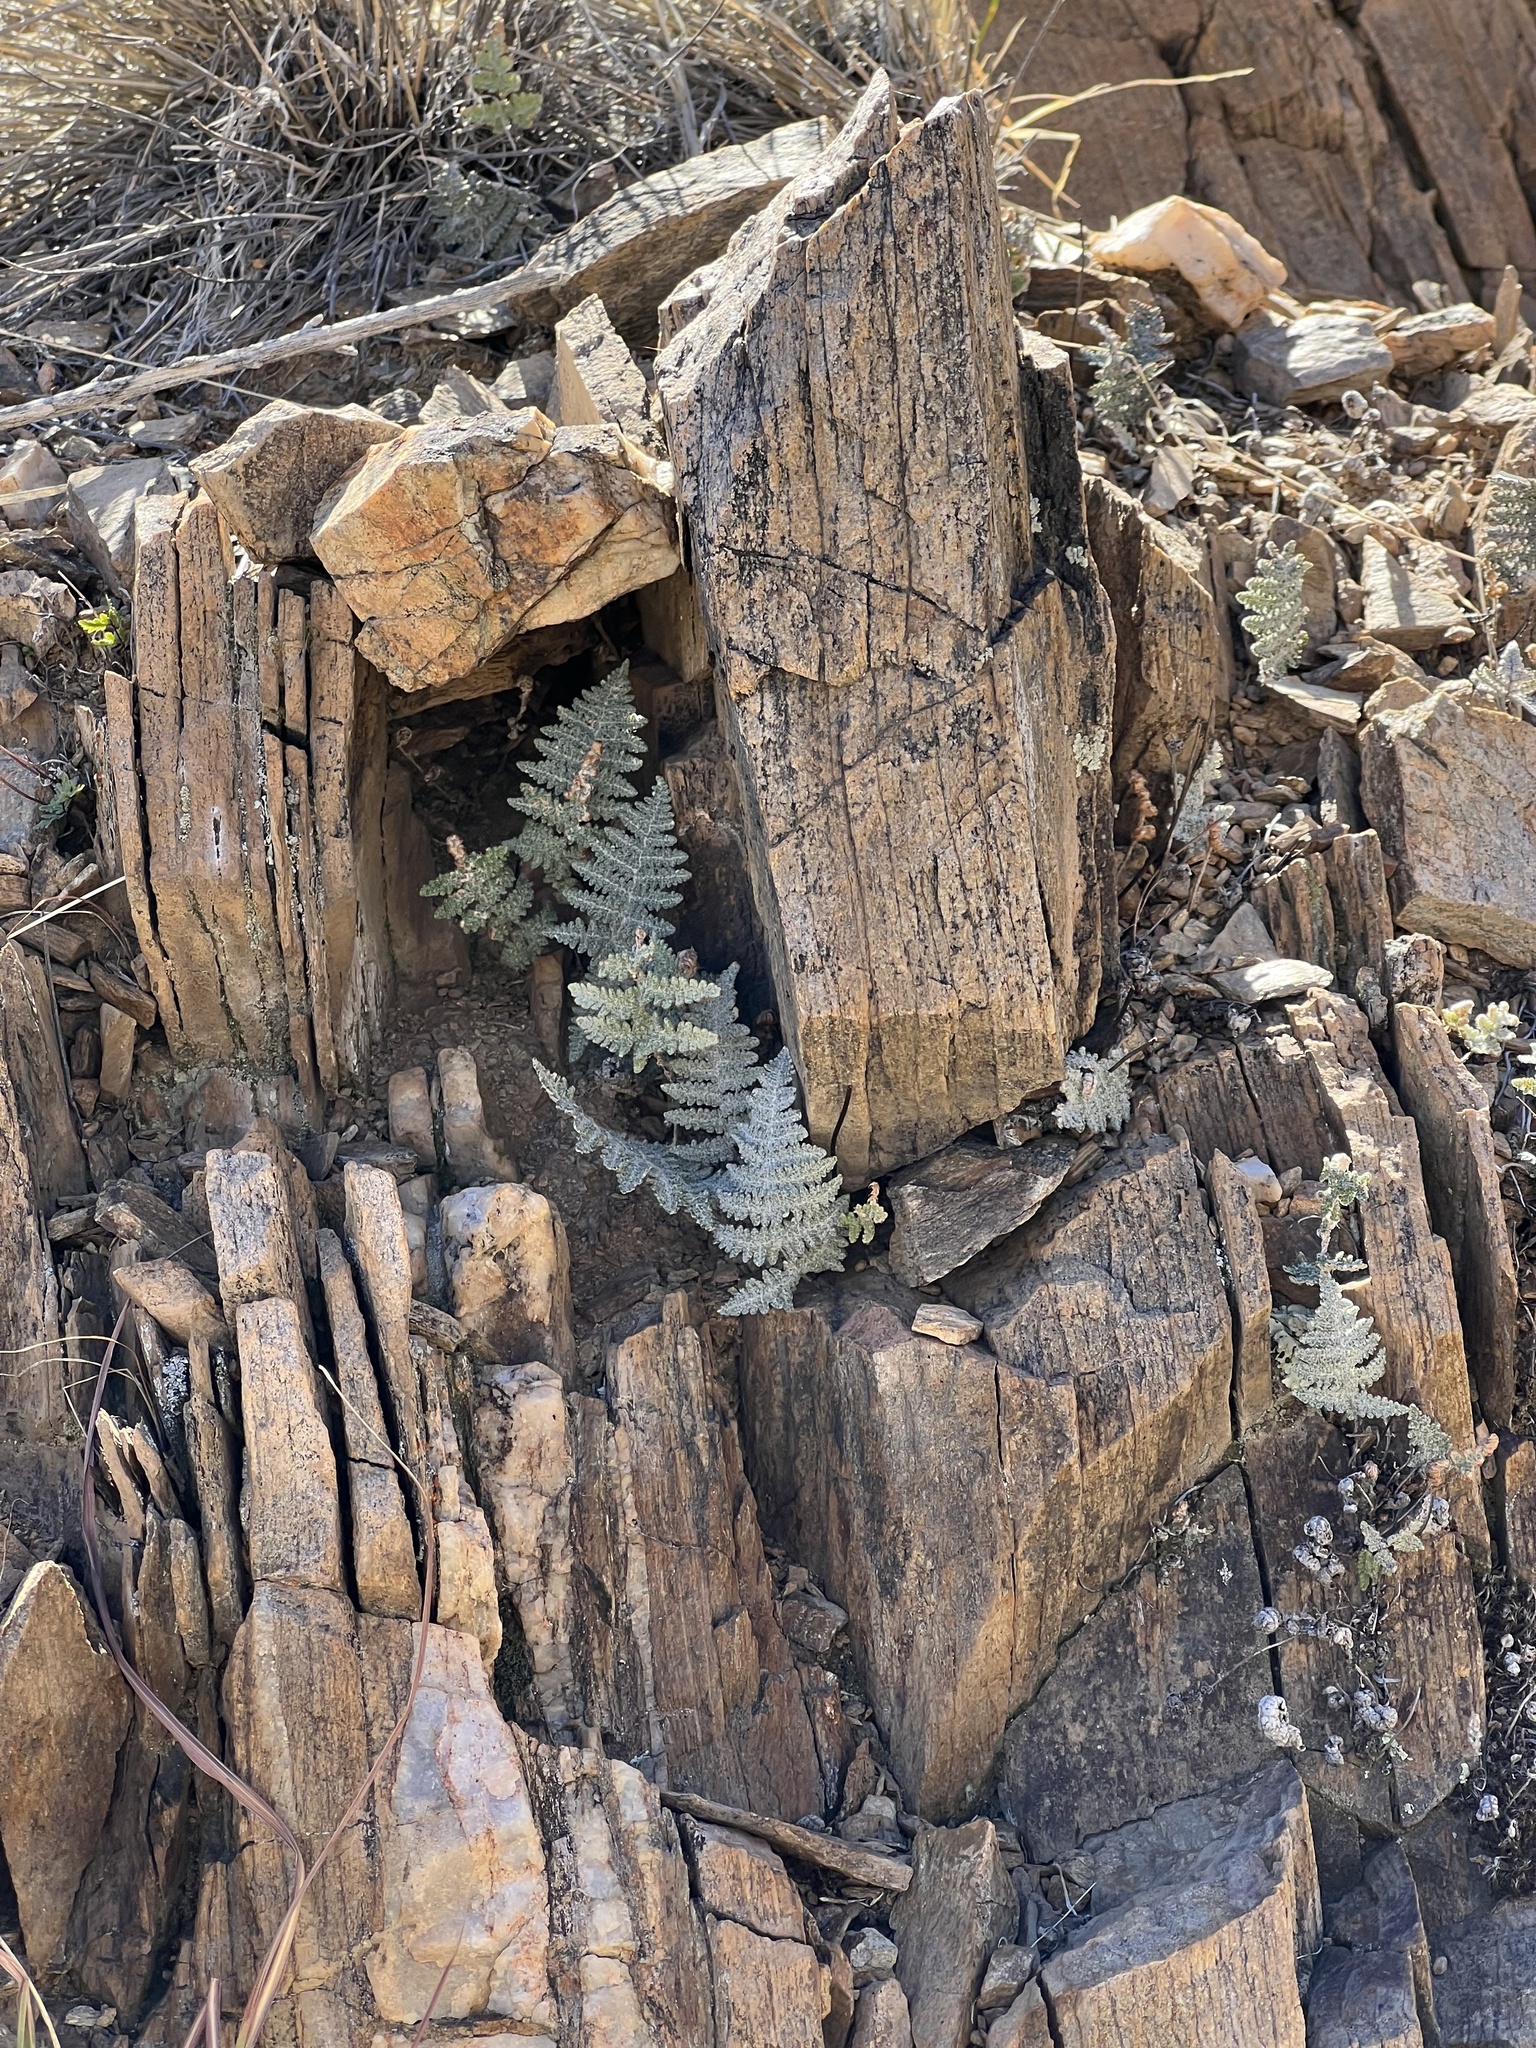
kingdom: Plantae
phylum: Tracheophyta
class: Polypodiopsida
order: Polypodiales
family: Pteridaceae
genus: Myriopteris
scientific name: Myriopteris lindheimeri
